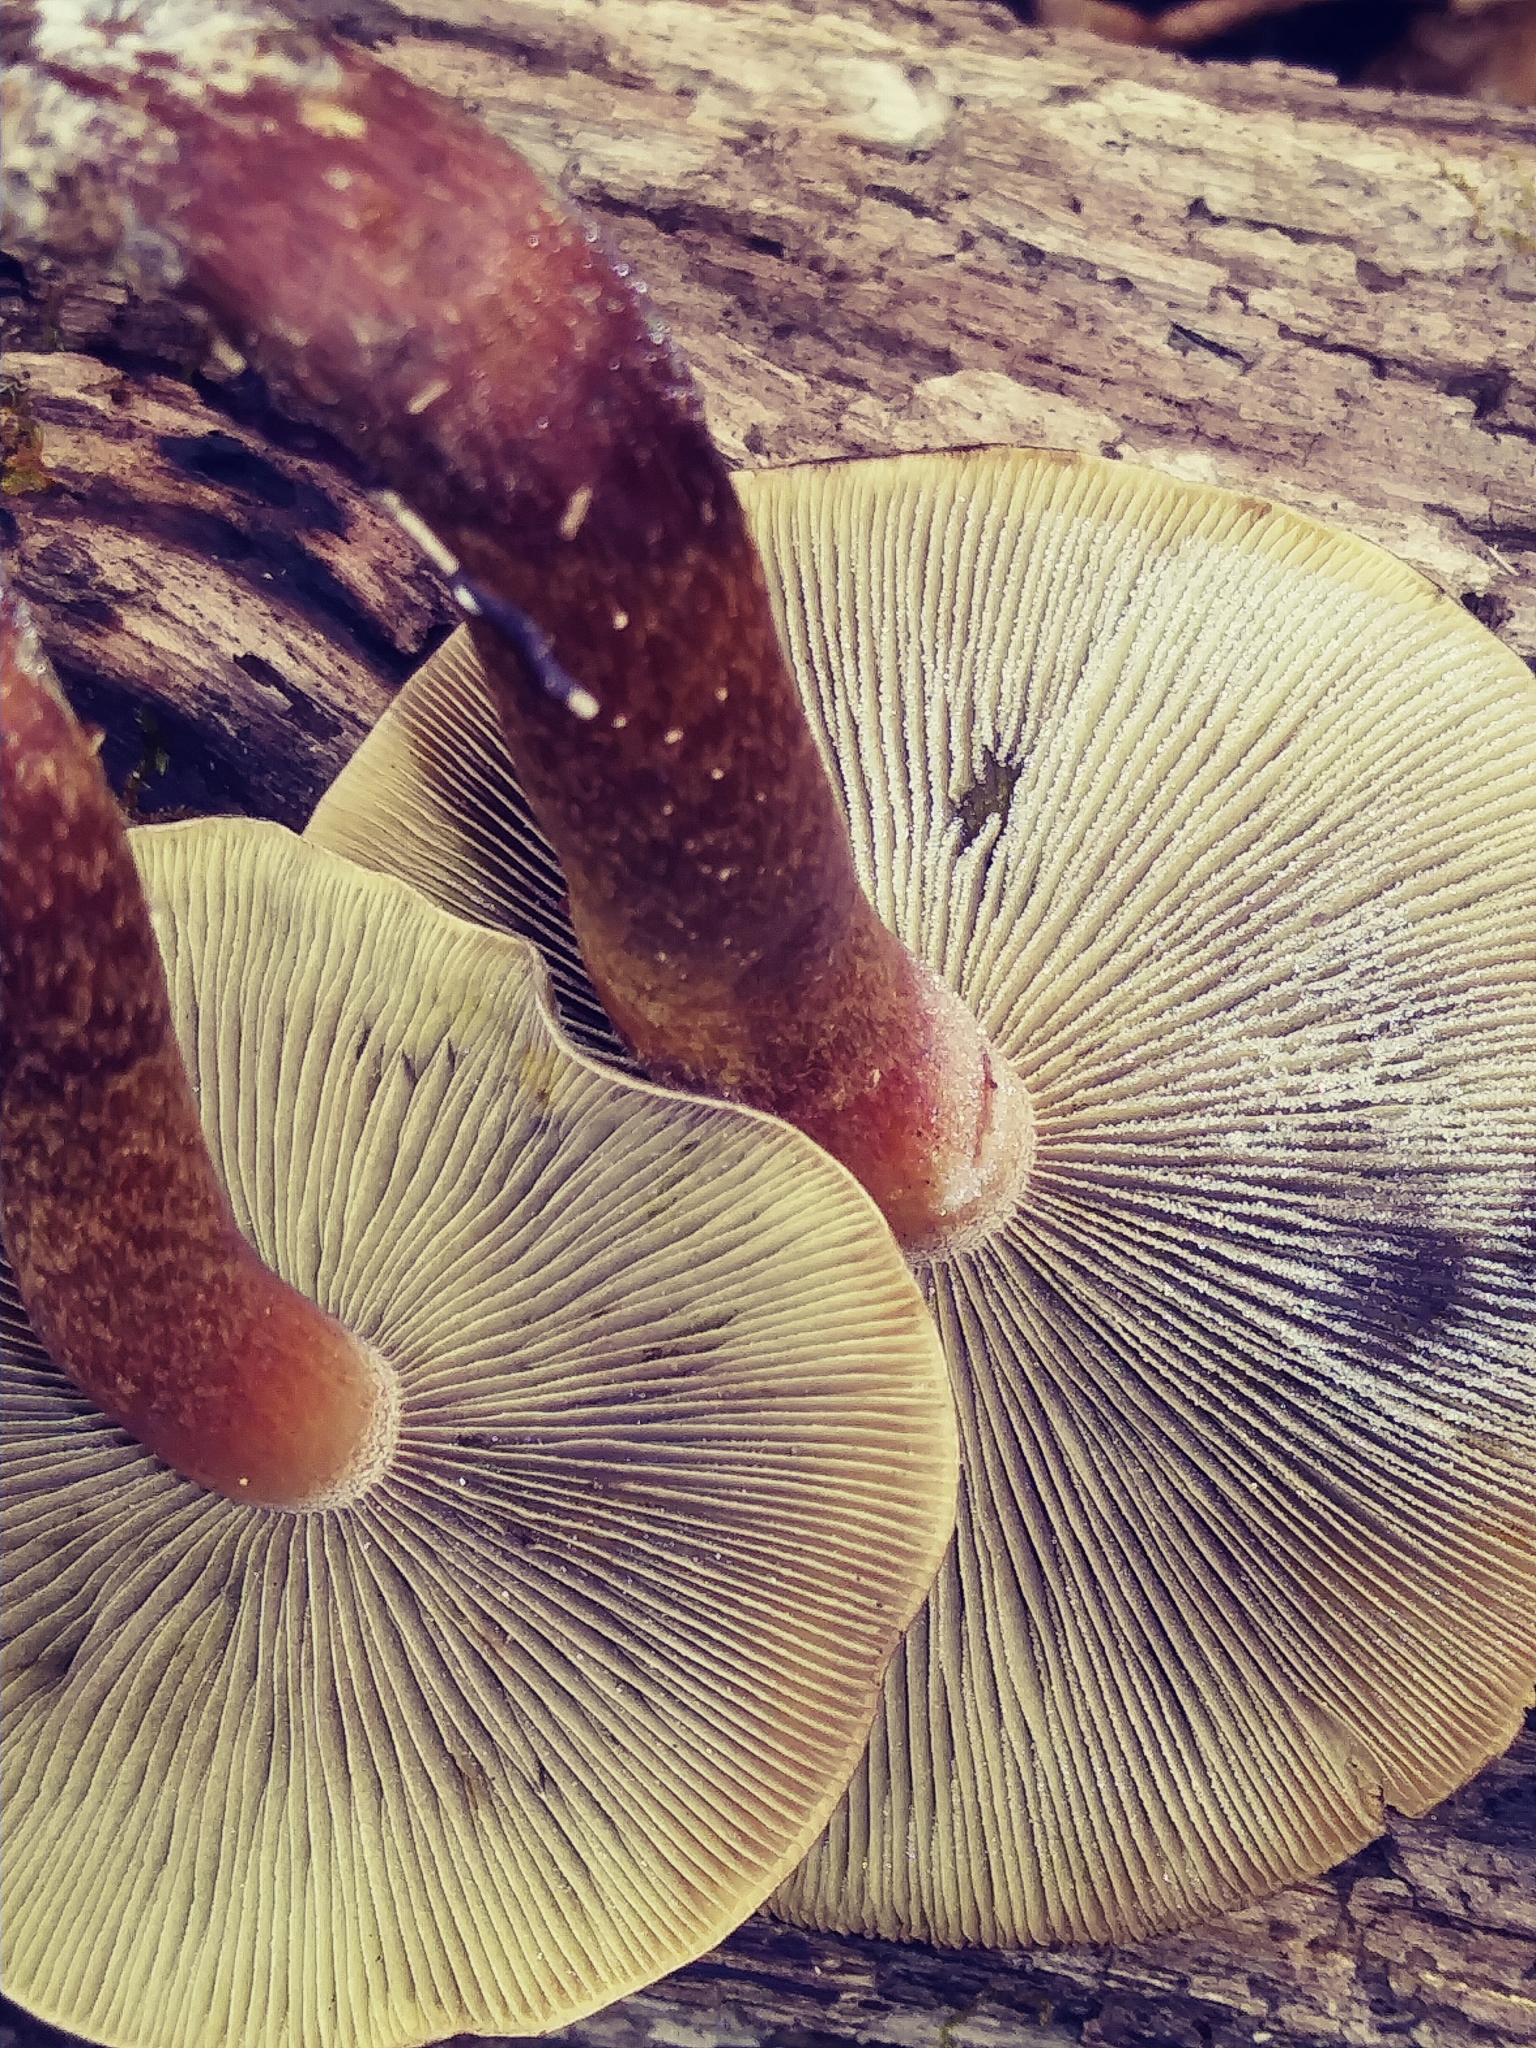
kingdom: Fungi
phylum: Basidiomycota
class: Agaricomycetes
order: Agaricales
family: Strophariaceae
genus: Hypholoma
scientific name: Hypholoma lateritium
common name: Brick caps
